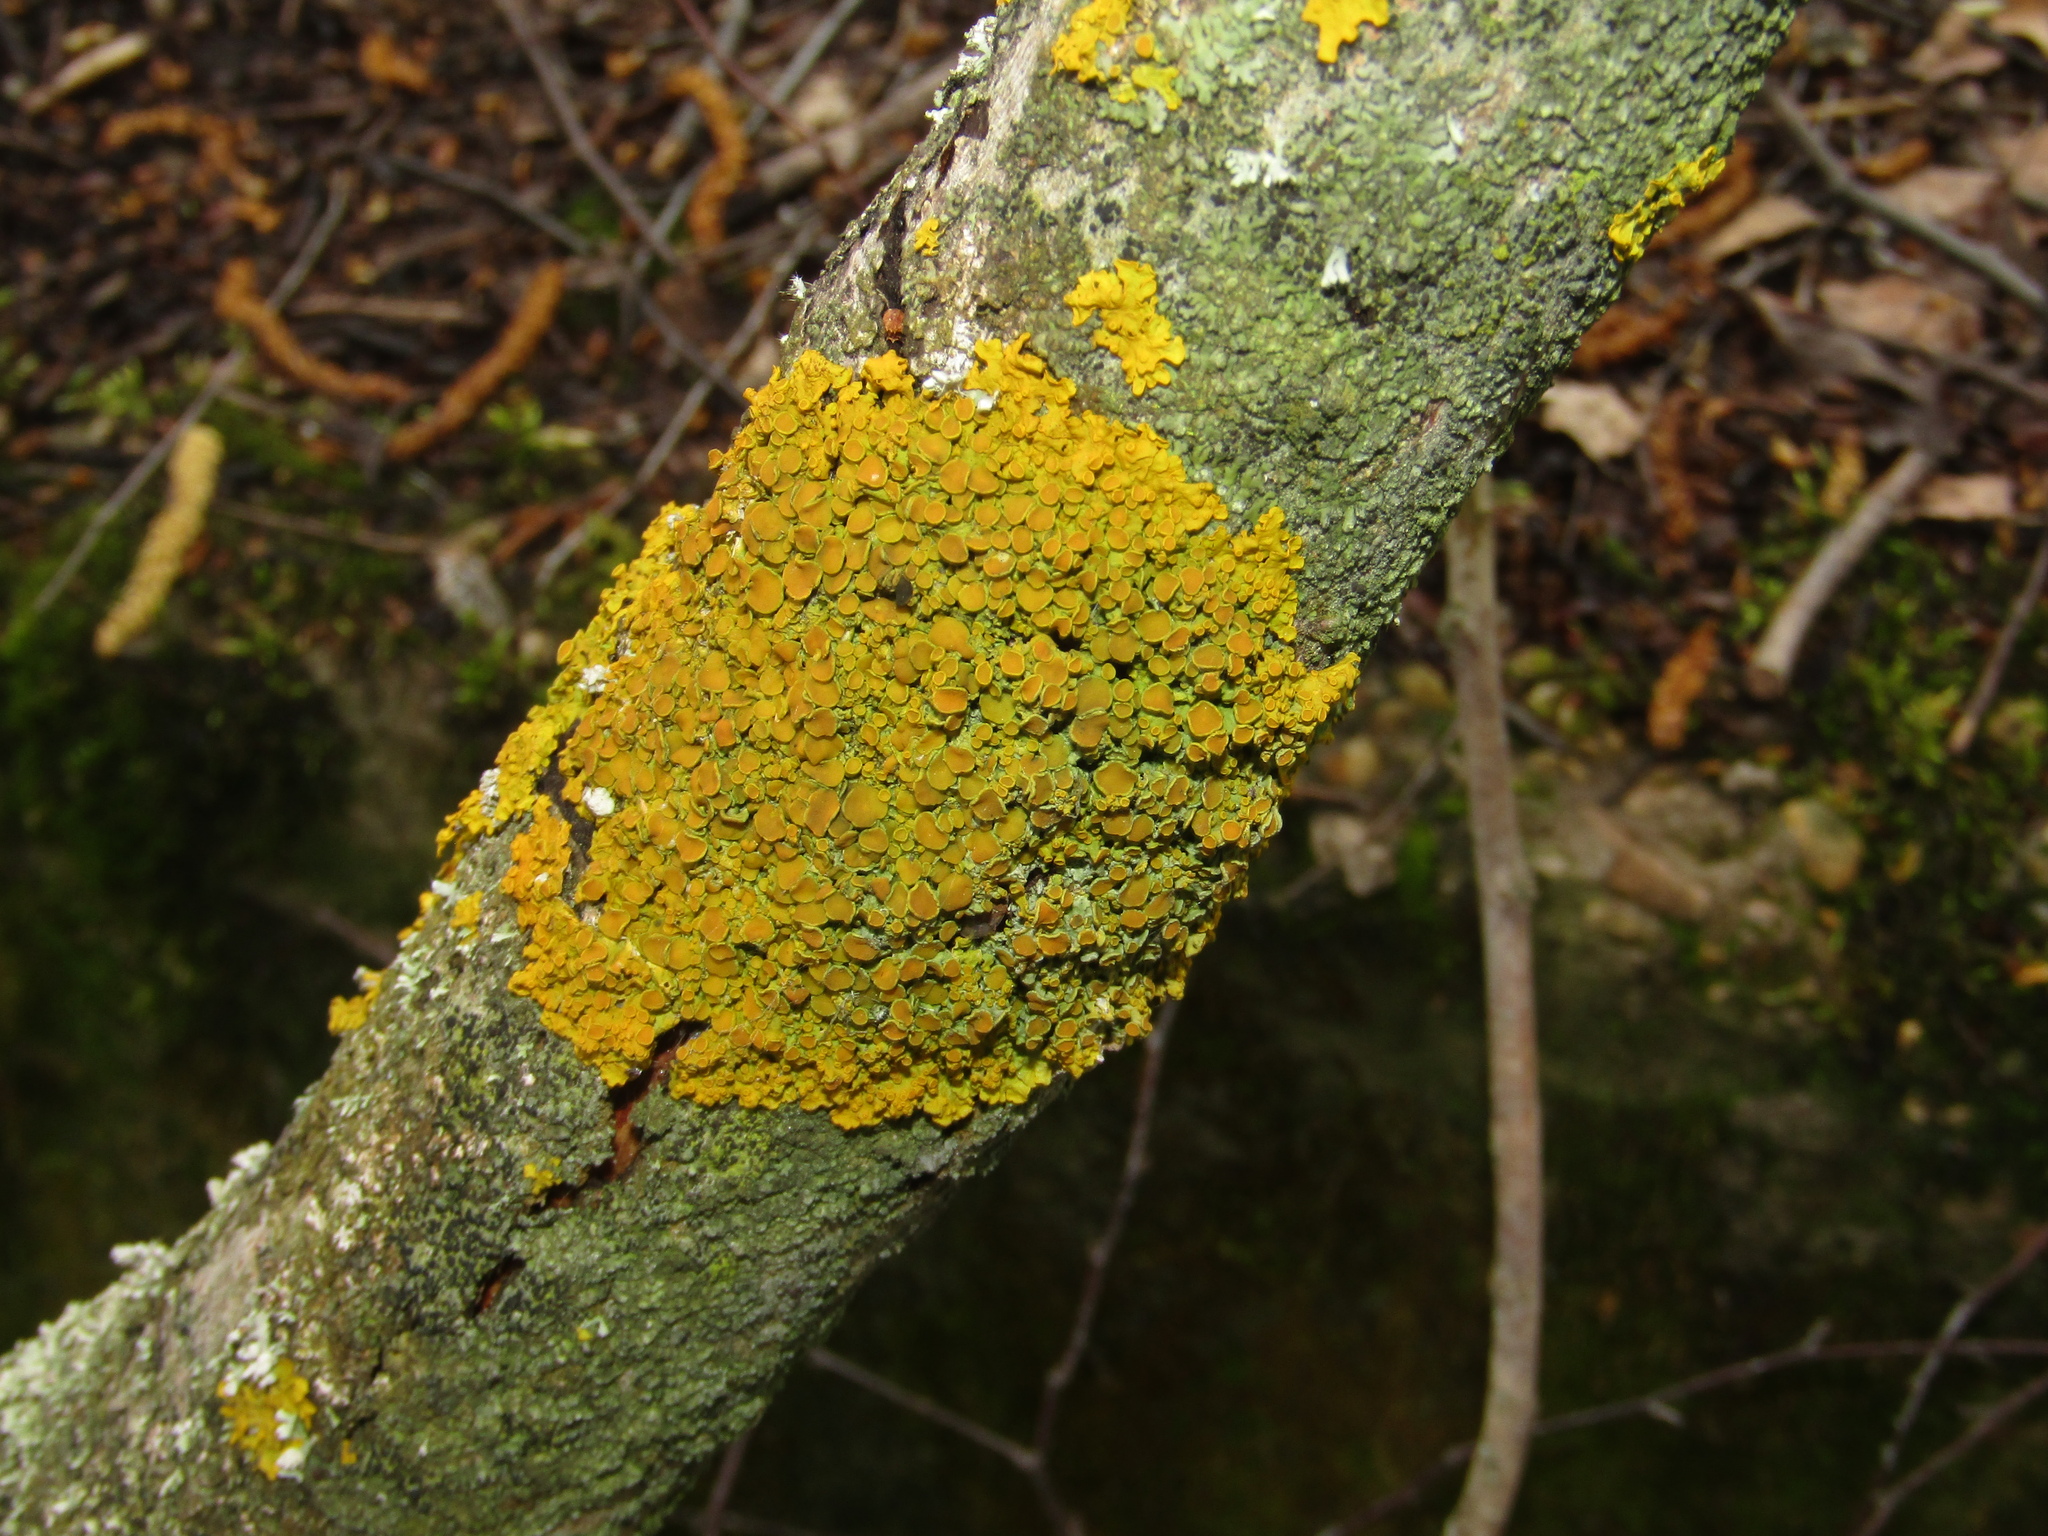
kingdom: Fungi
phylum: Ascomycota
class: Lecanoromycetes
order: Teloschistales
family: Teloschistaceae
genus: Xanthoria
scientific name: Xanthoria parietina
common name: Common orange lichen
